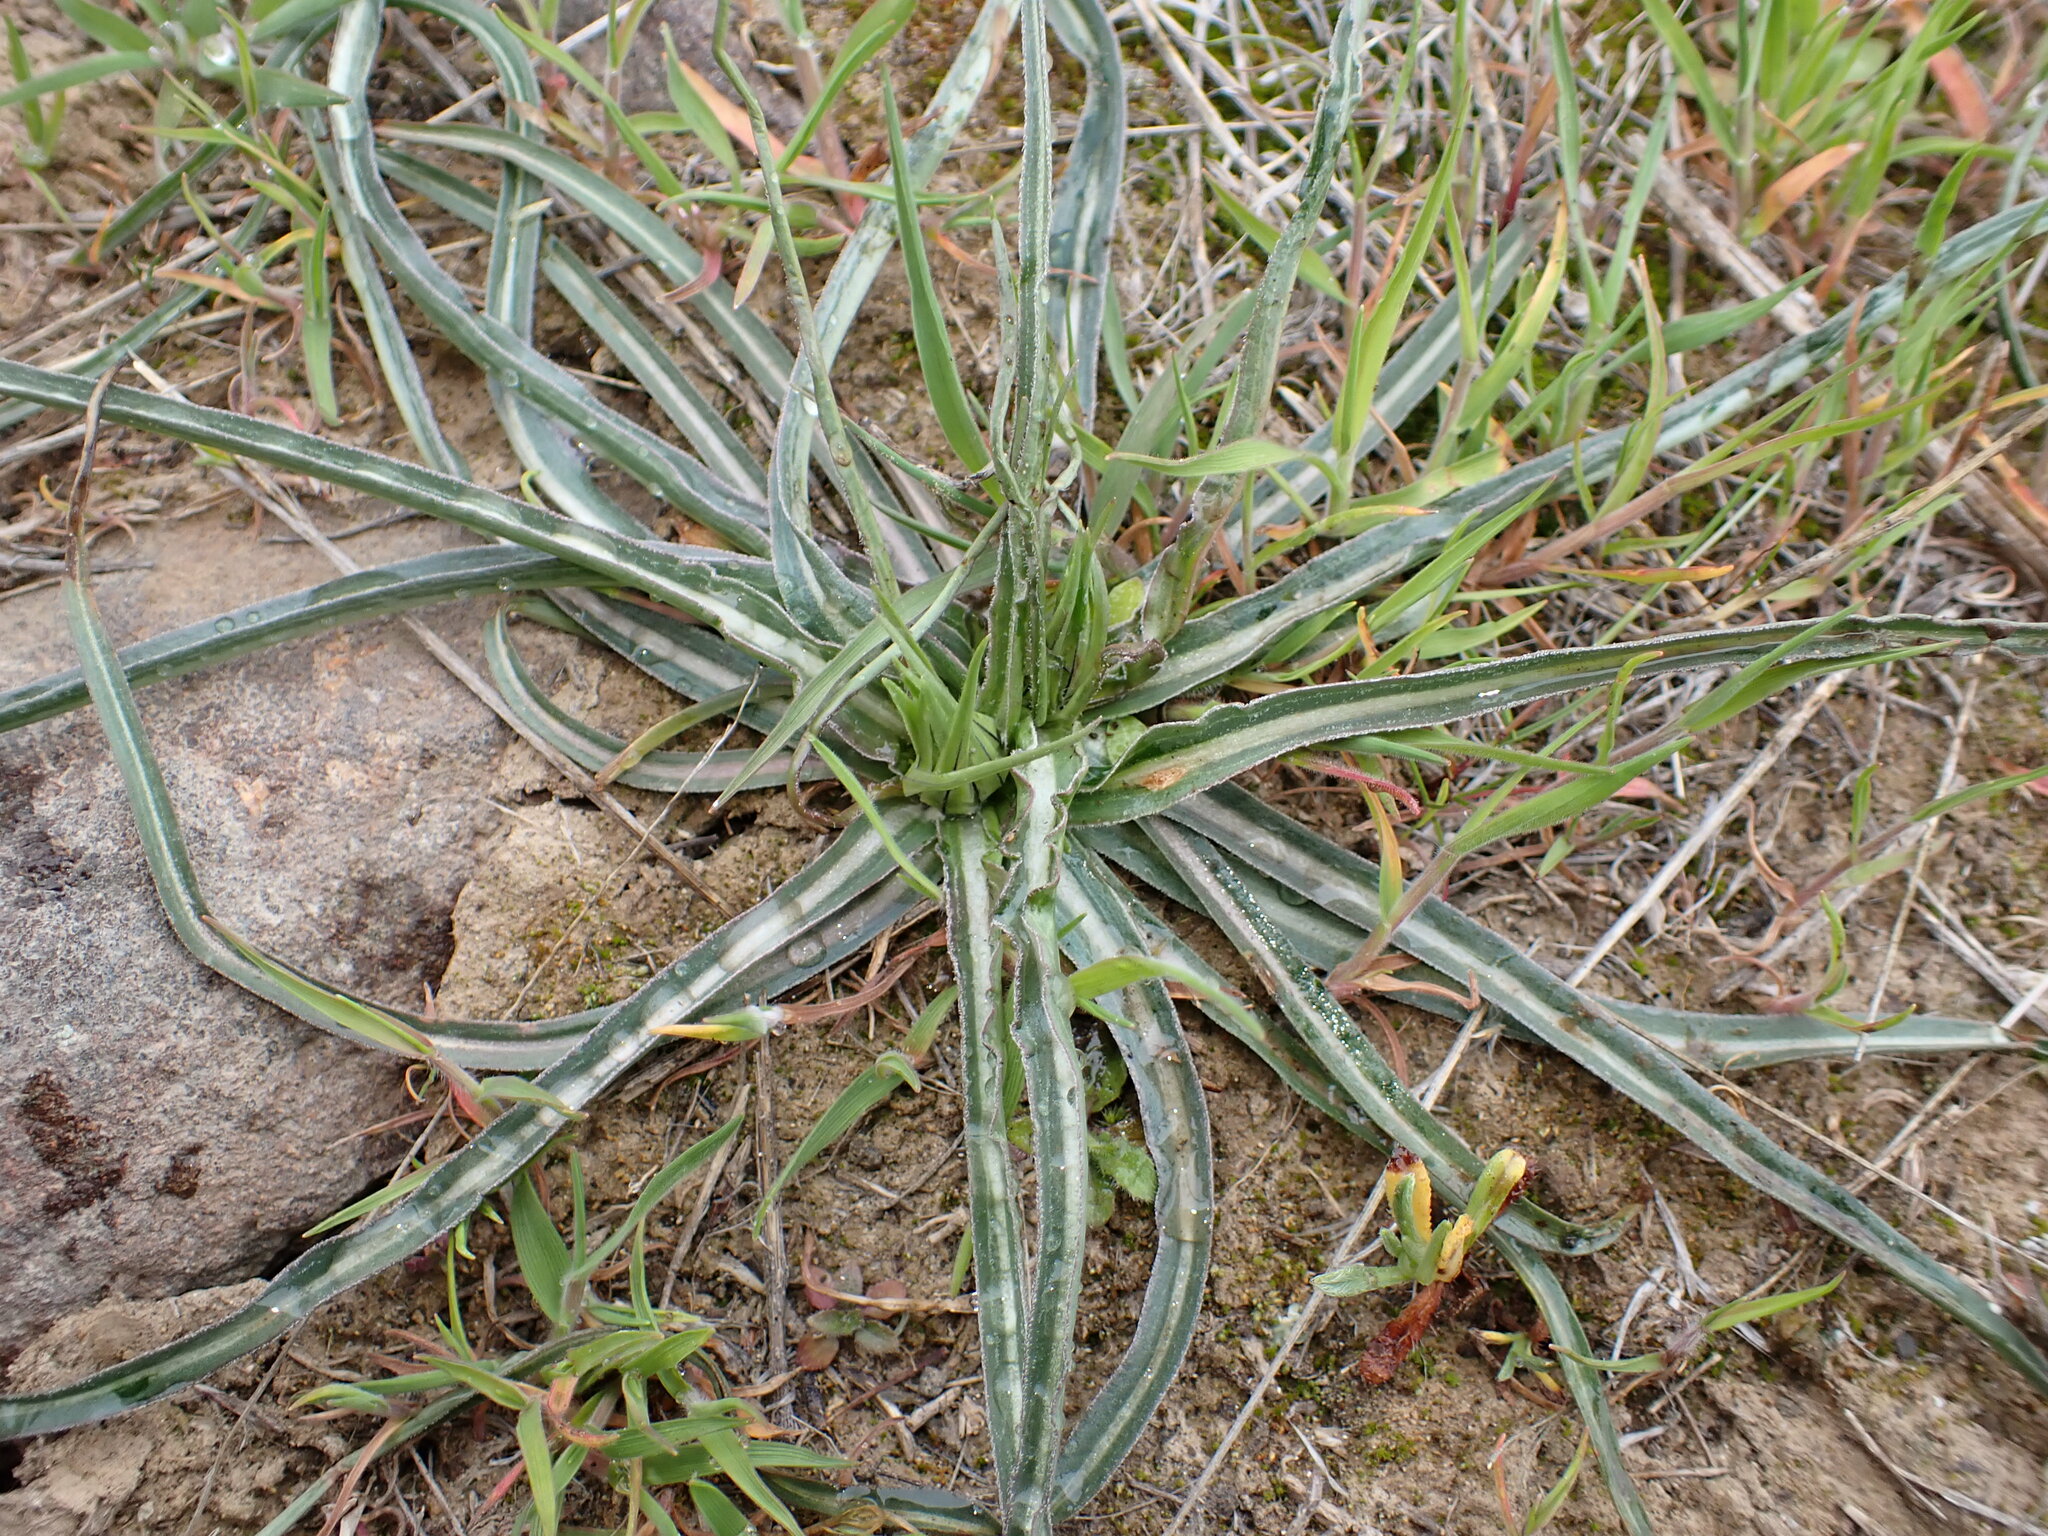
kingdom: Plantae
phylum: Tracheophyta
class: Magnoliopsida
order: Asterales
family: Asteraceae
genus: Microseris
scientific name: Microseris troximoides
